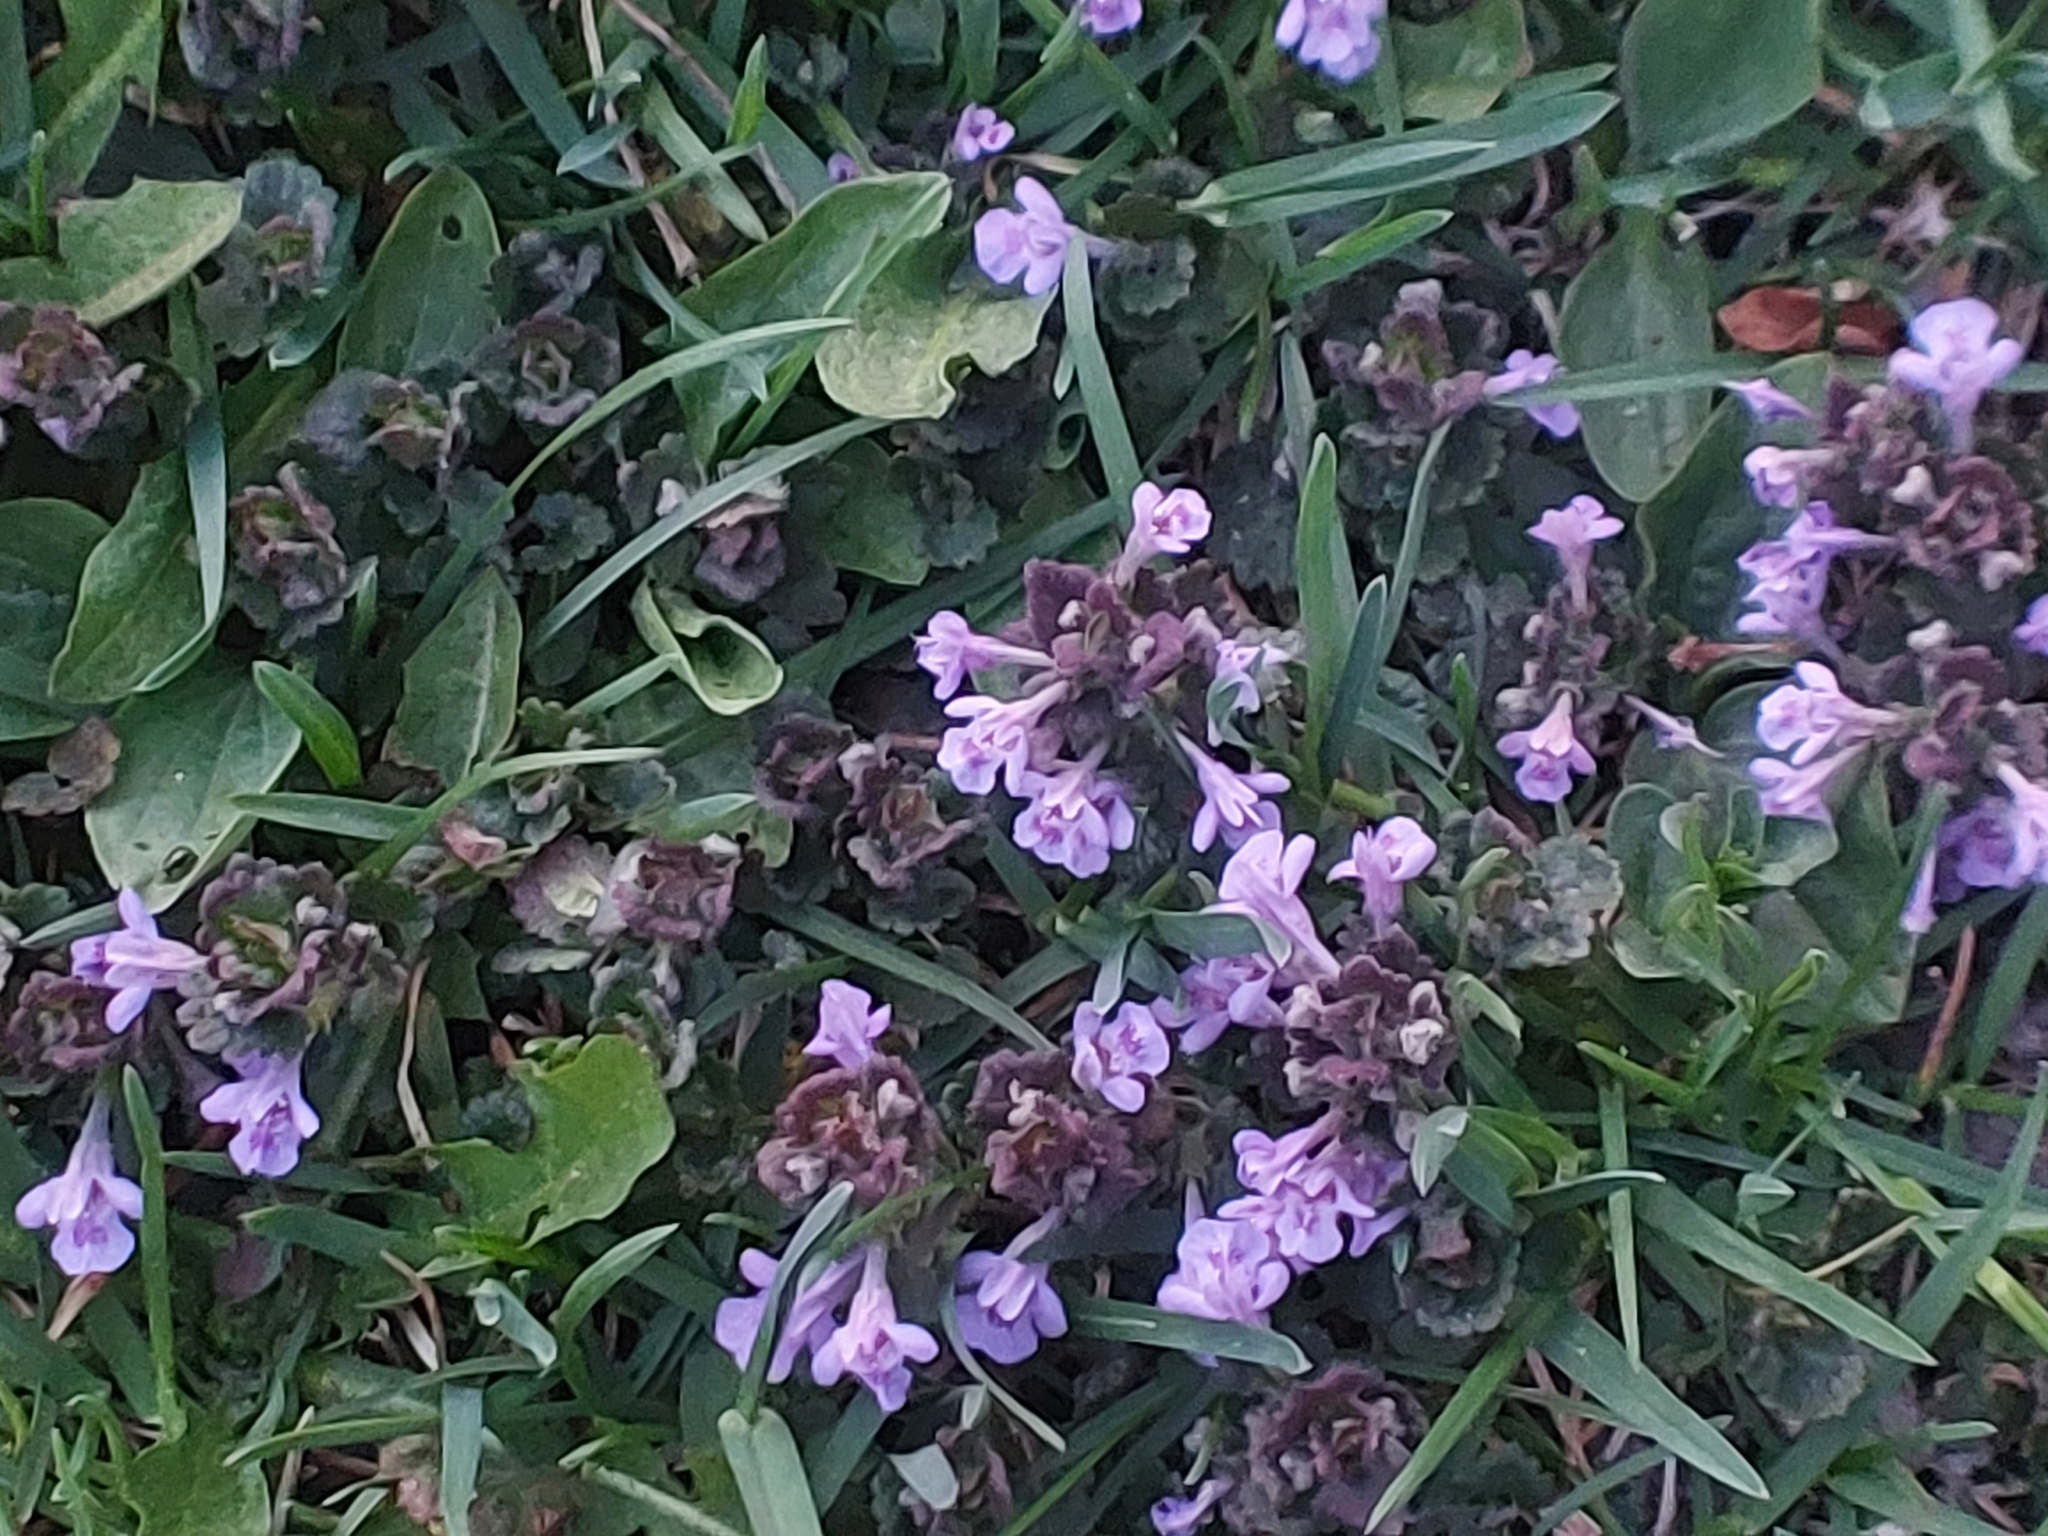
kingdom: Plantae
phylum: Tracheophyta
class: Magnoliopsida
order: Lamiales
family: Lamiaceae
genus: Glechoma
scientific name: Glechoma hederacea
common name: Ground ivy
